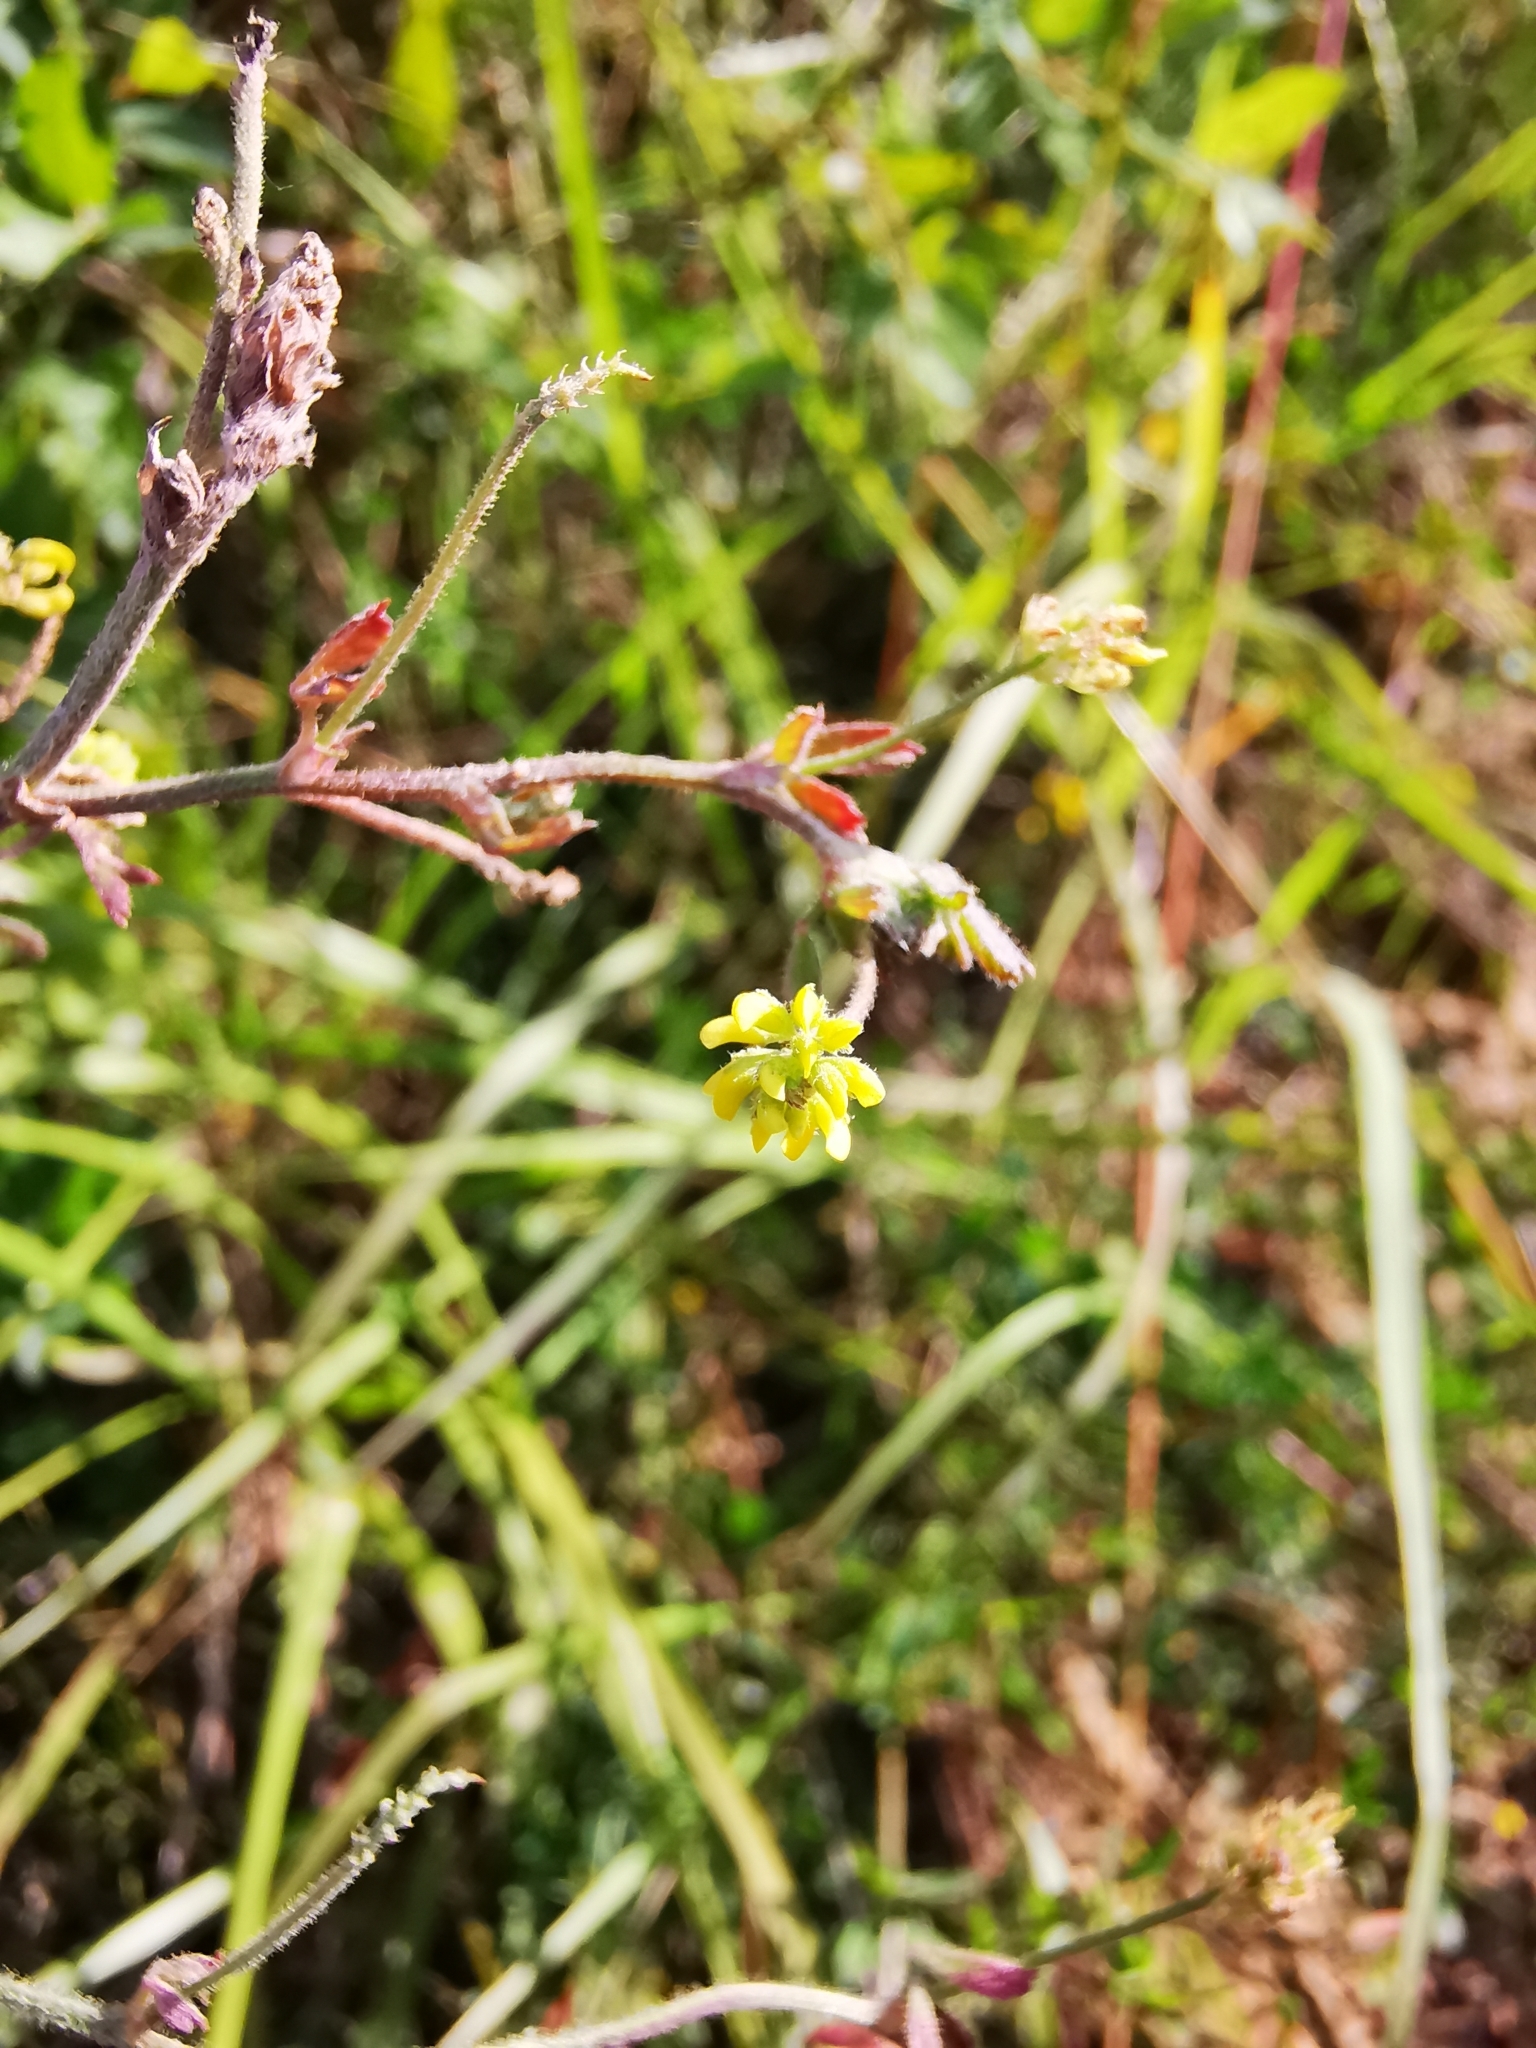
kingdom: Plantae
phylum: Tracheophyta
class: Magnoliopsida
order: Fabales
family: Fabaceae
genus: Medicago
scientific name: Medicago lupulina
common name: Black medick
